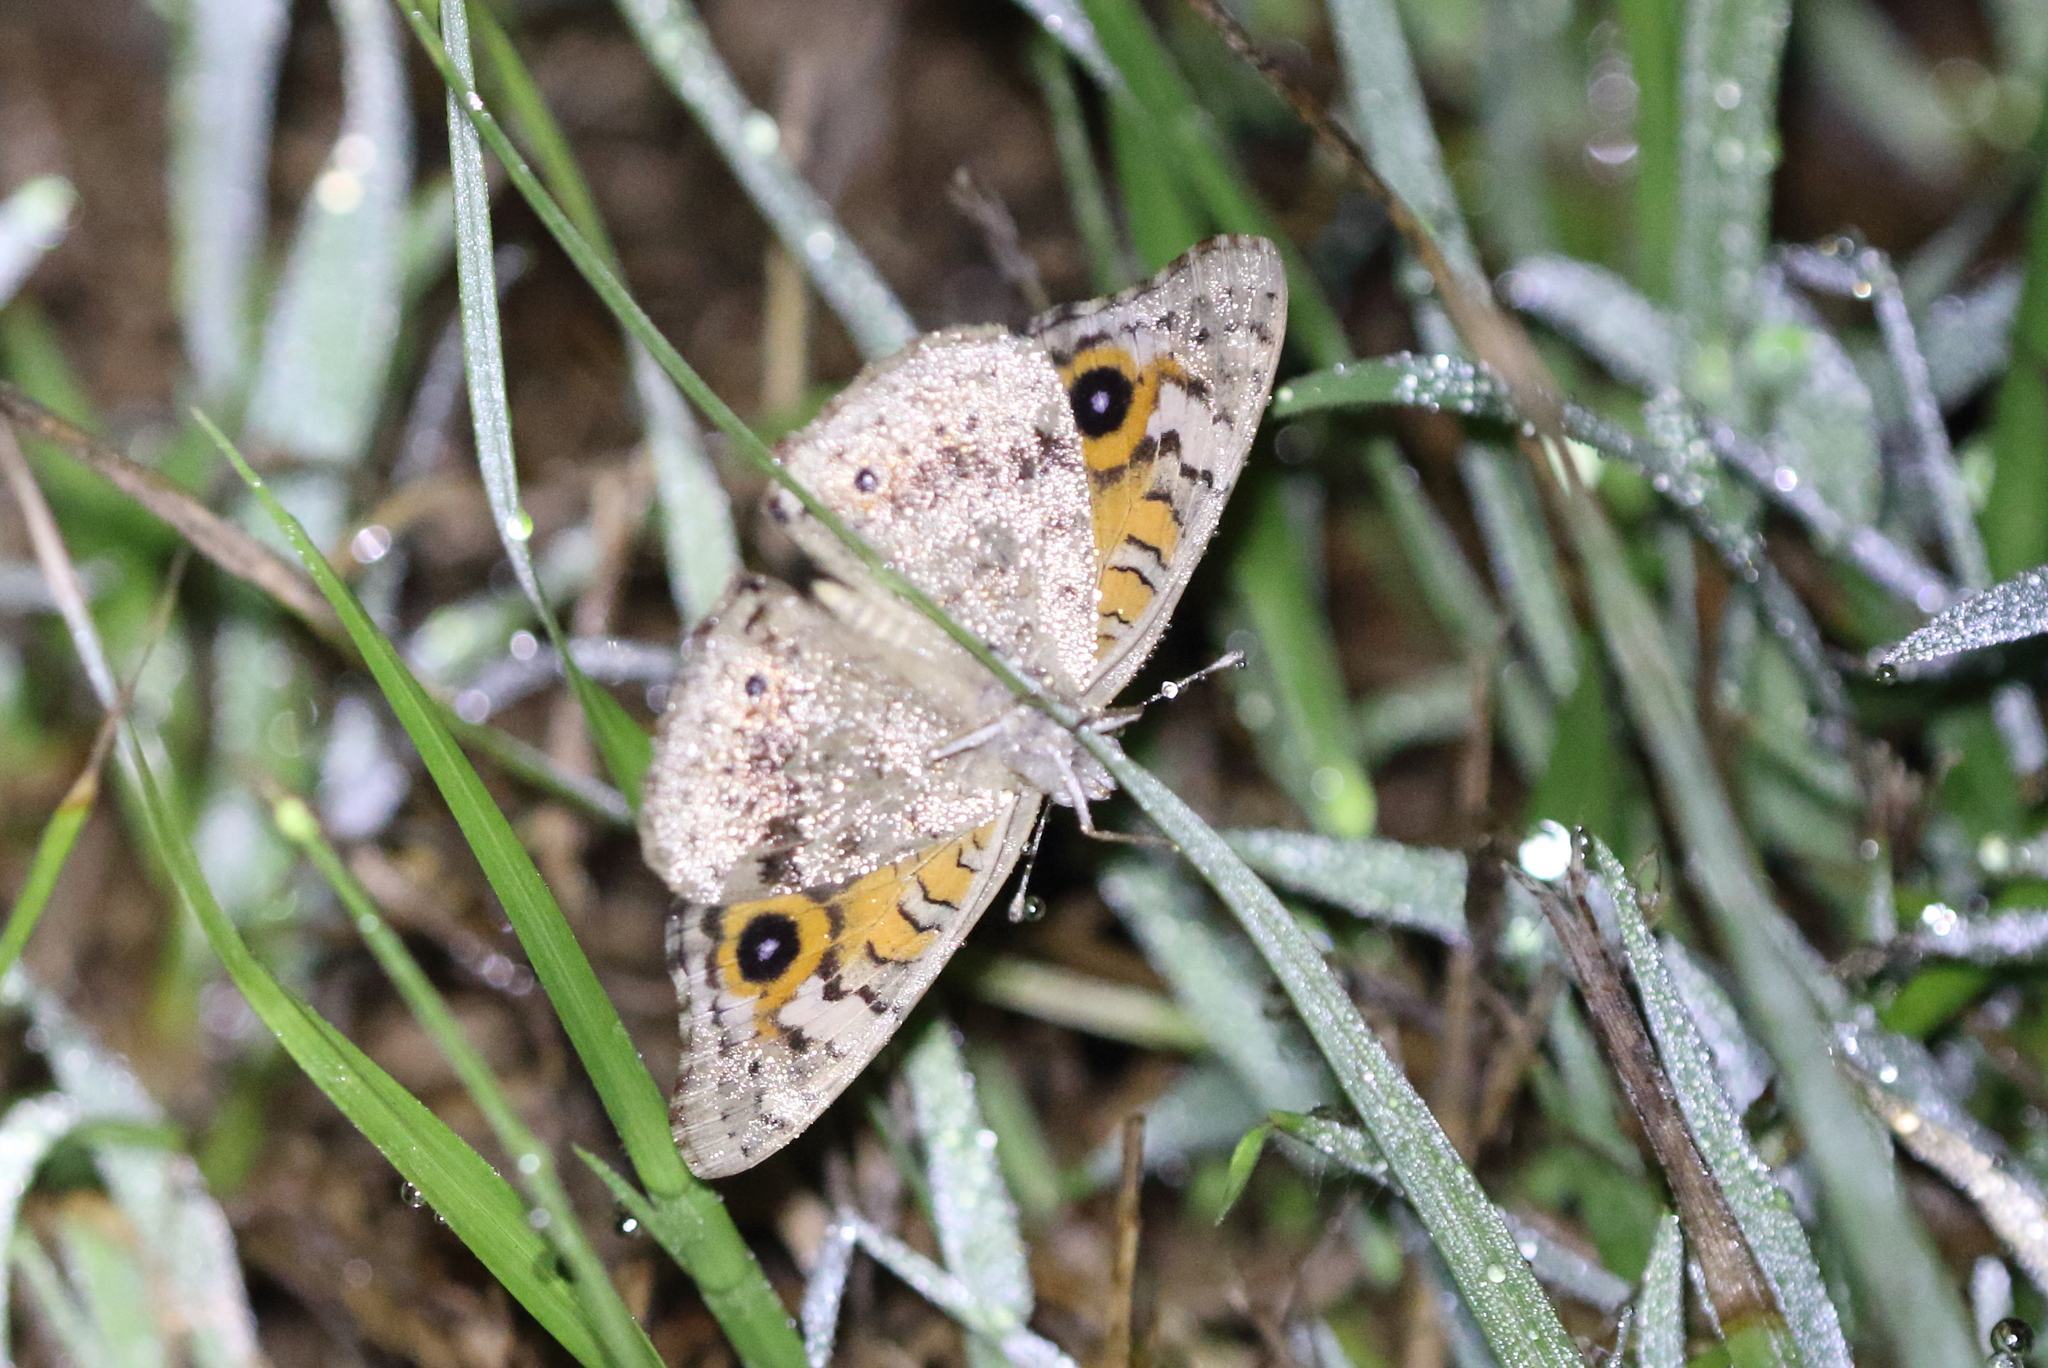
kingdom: Animalia
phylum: Arthropoda
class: Insecta
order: Lepidoptera
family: Nymphalidae
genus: Junonia
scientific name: Junonia villida
